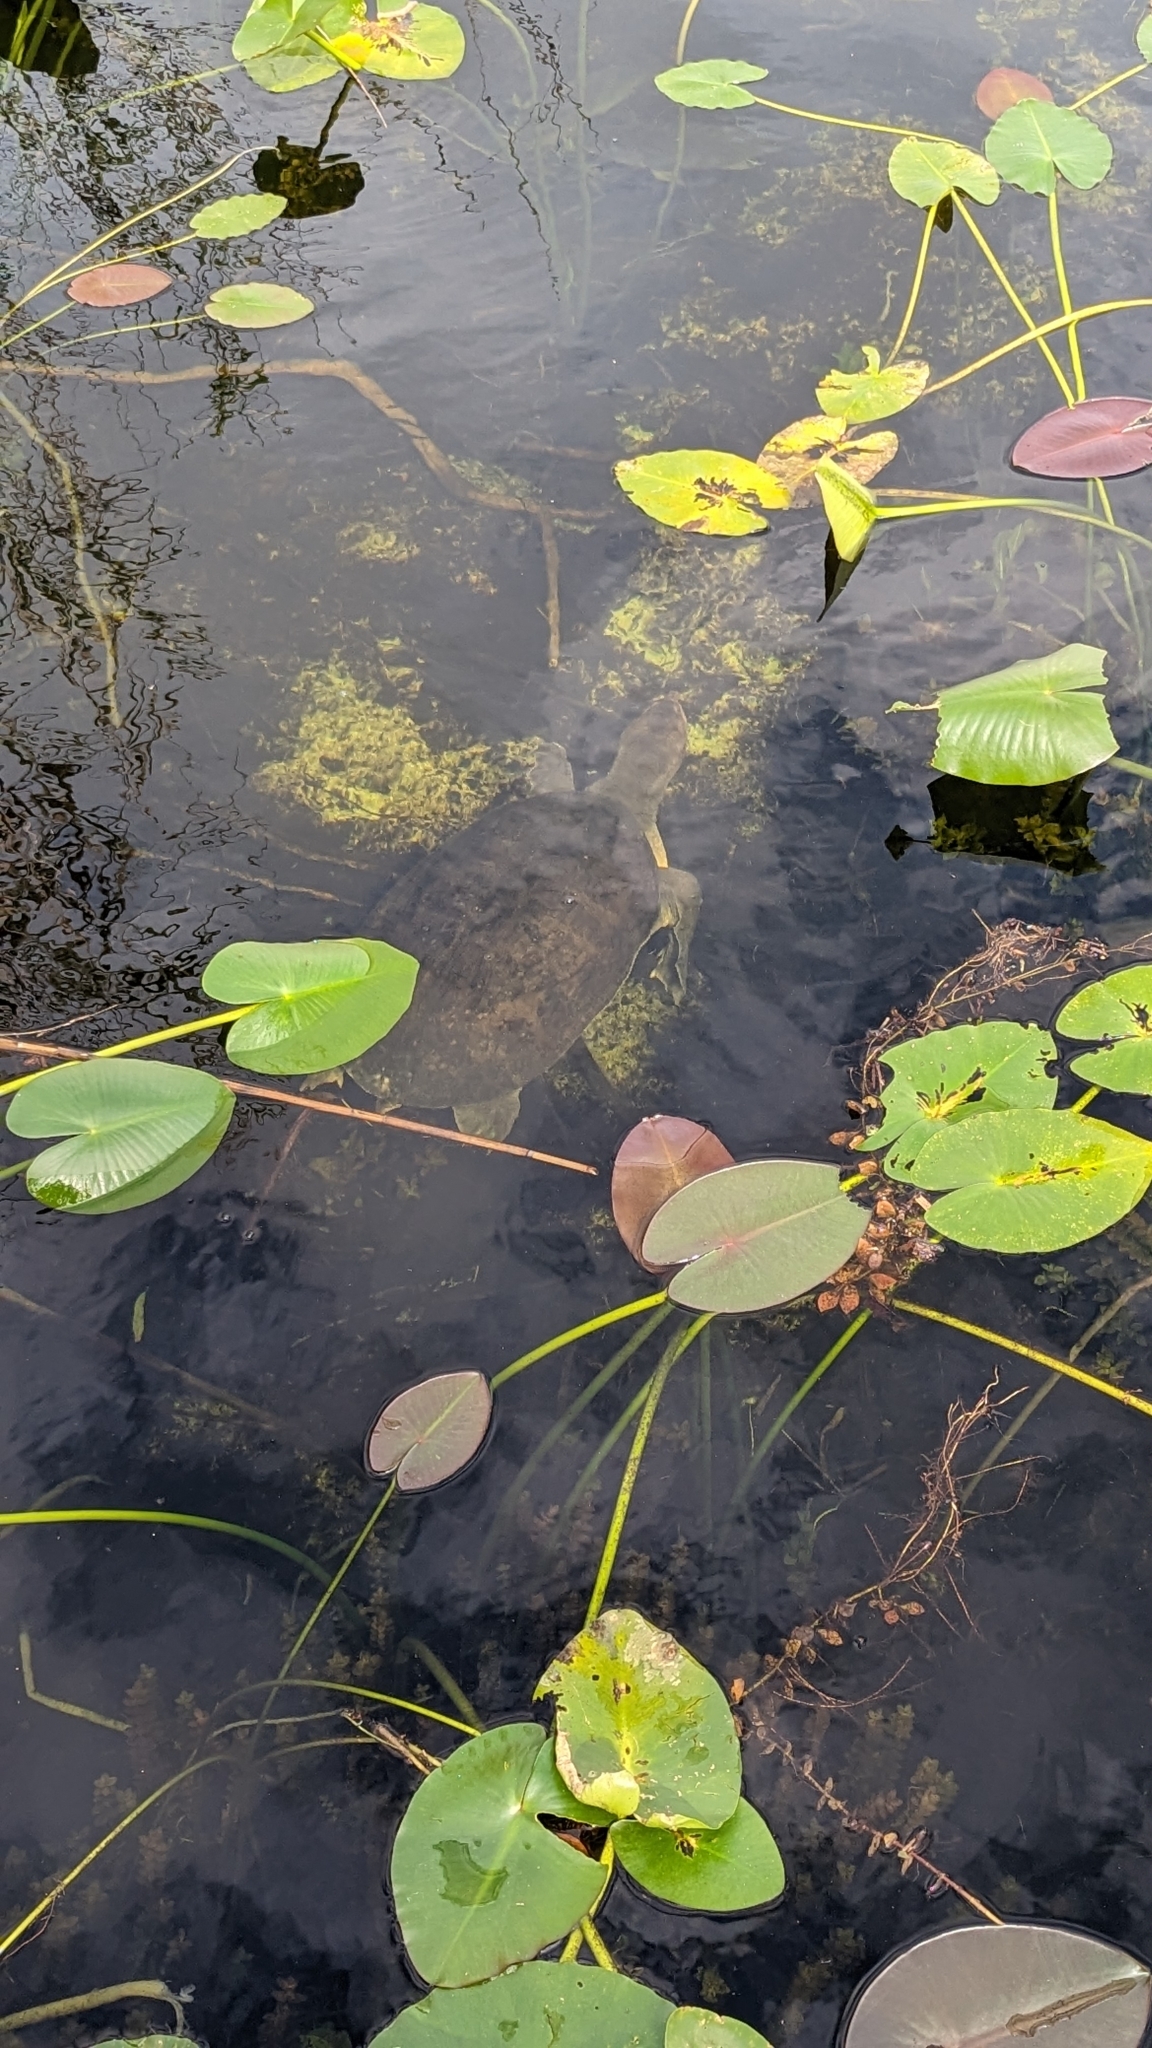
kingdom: Animalia
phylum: Chordata
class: Testudines
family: Trionychidae
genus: Apalone
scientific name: Apalone ferox
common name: Florida softshell turtle
